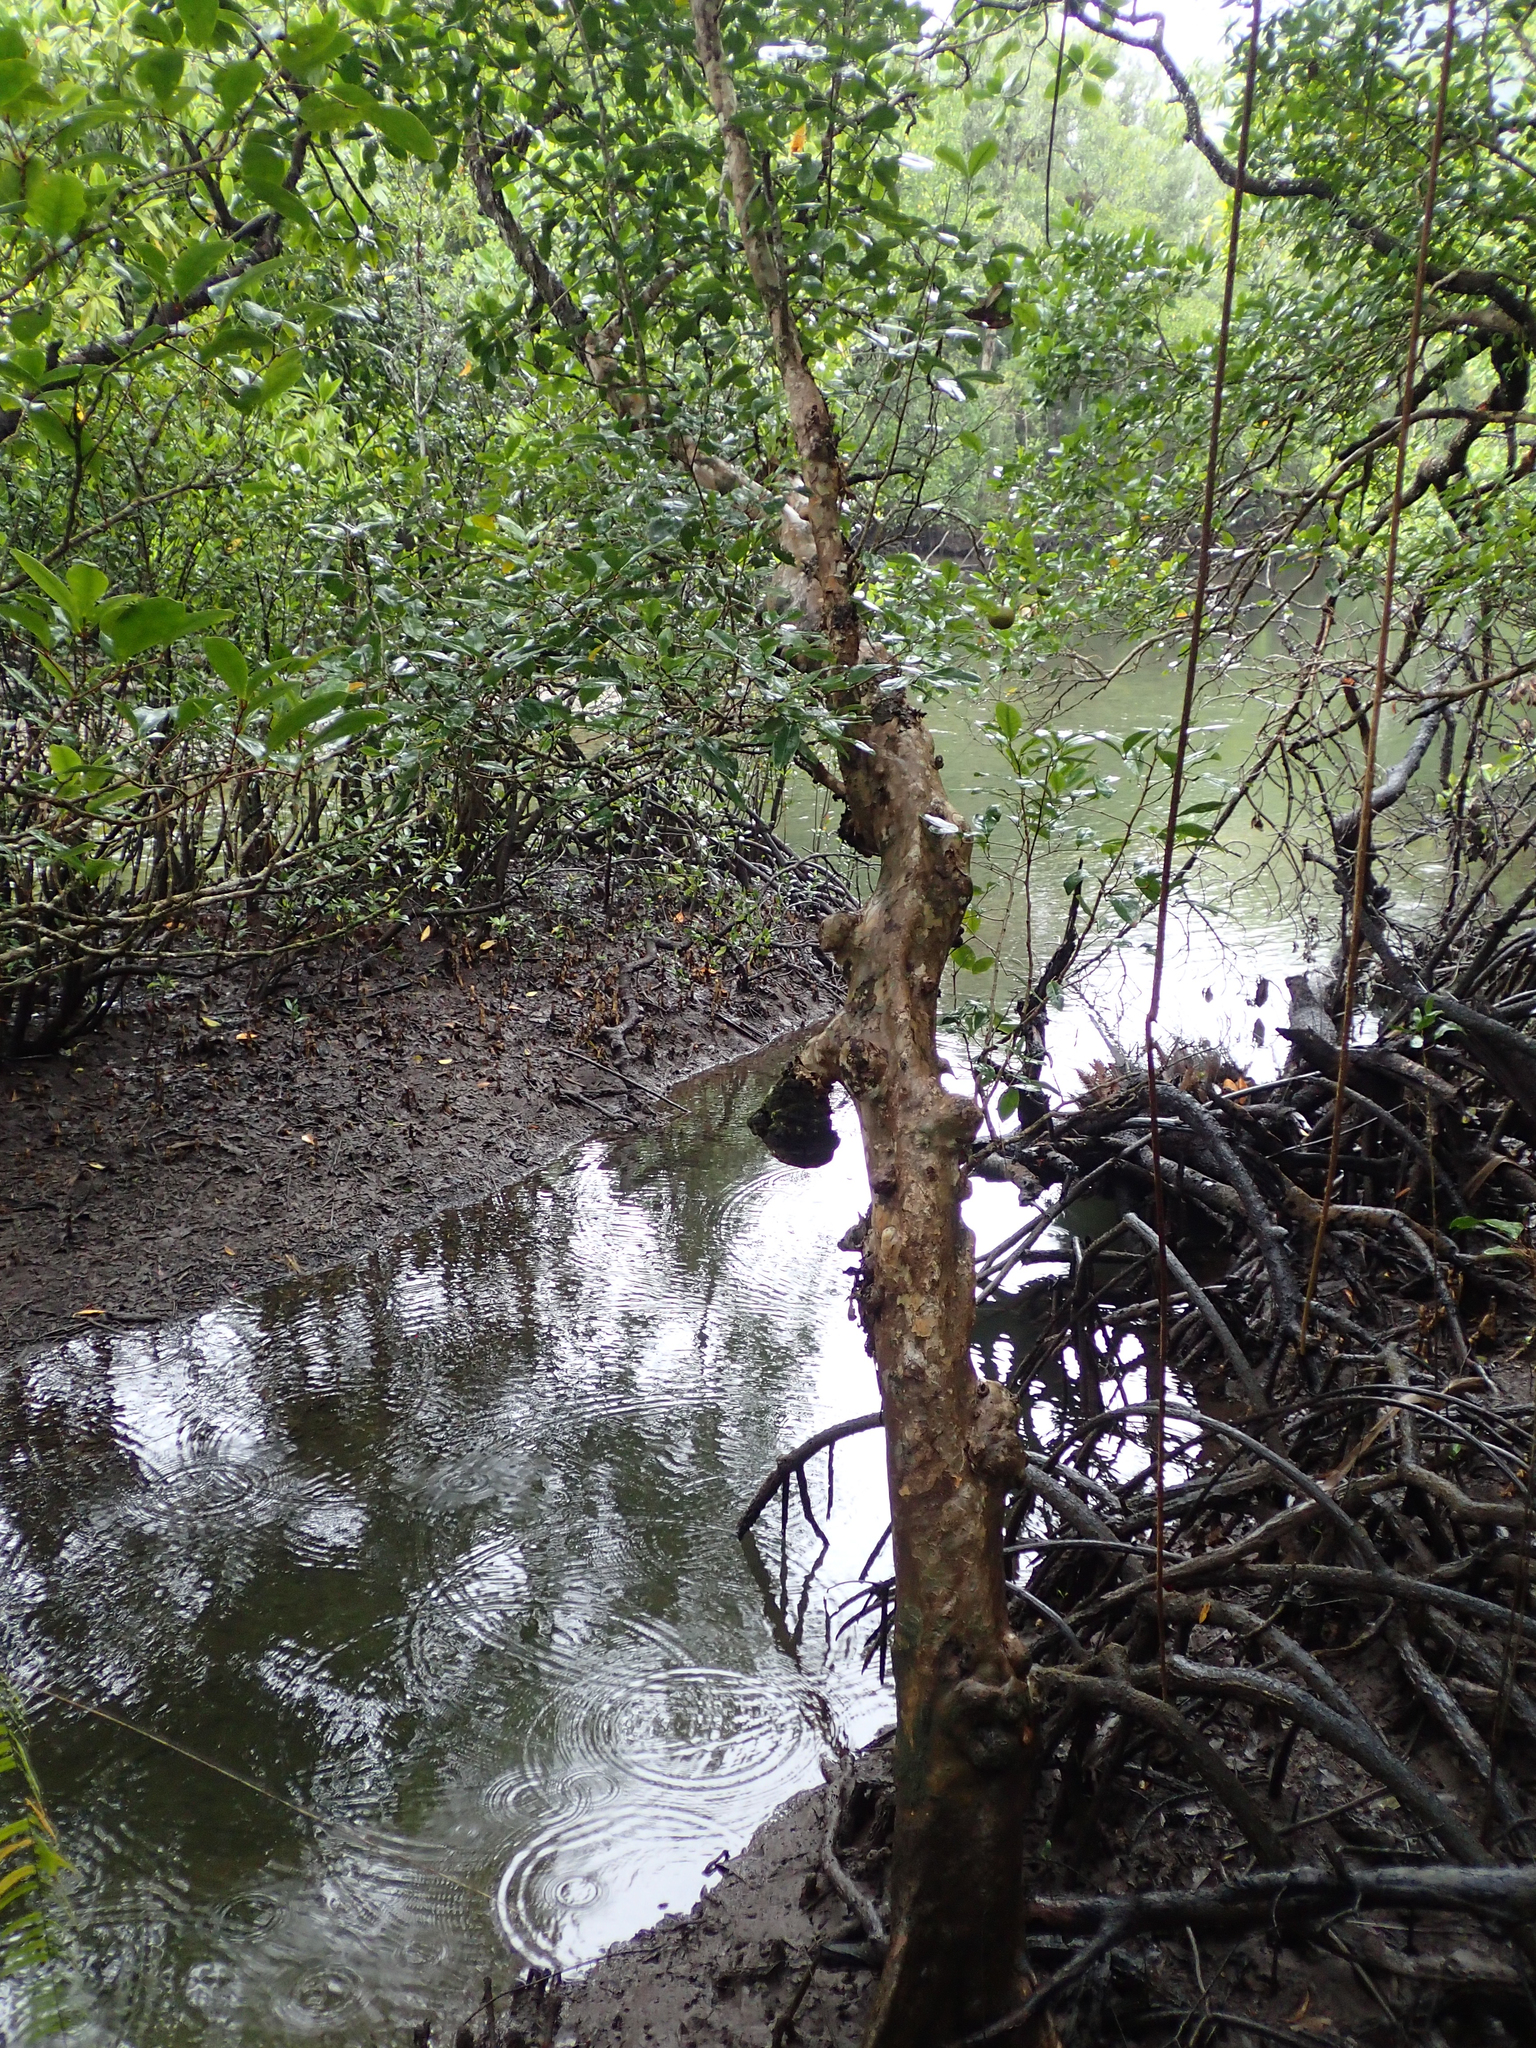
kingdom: Plantae
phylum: Tracheophyta
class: Magnoliopsida
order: Sapindales
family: Meliaceae
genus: Xylocarpus
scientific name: Xylocarpus granatum
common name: Apple mangrove
